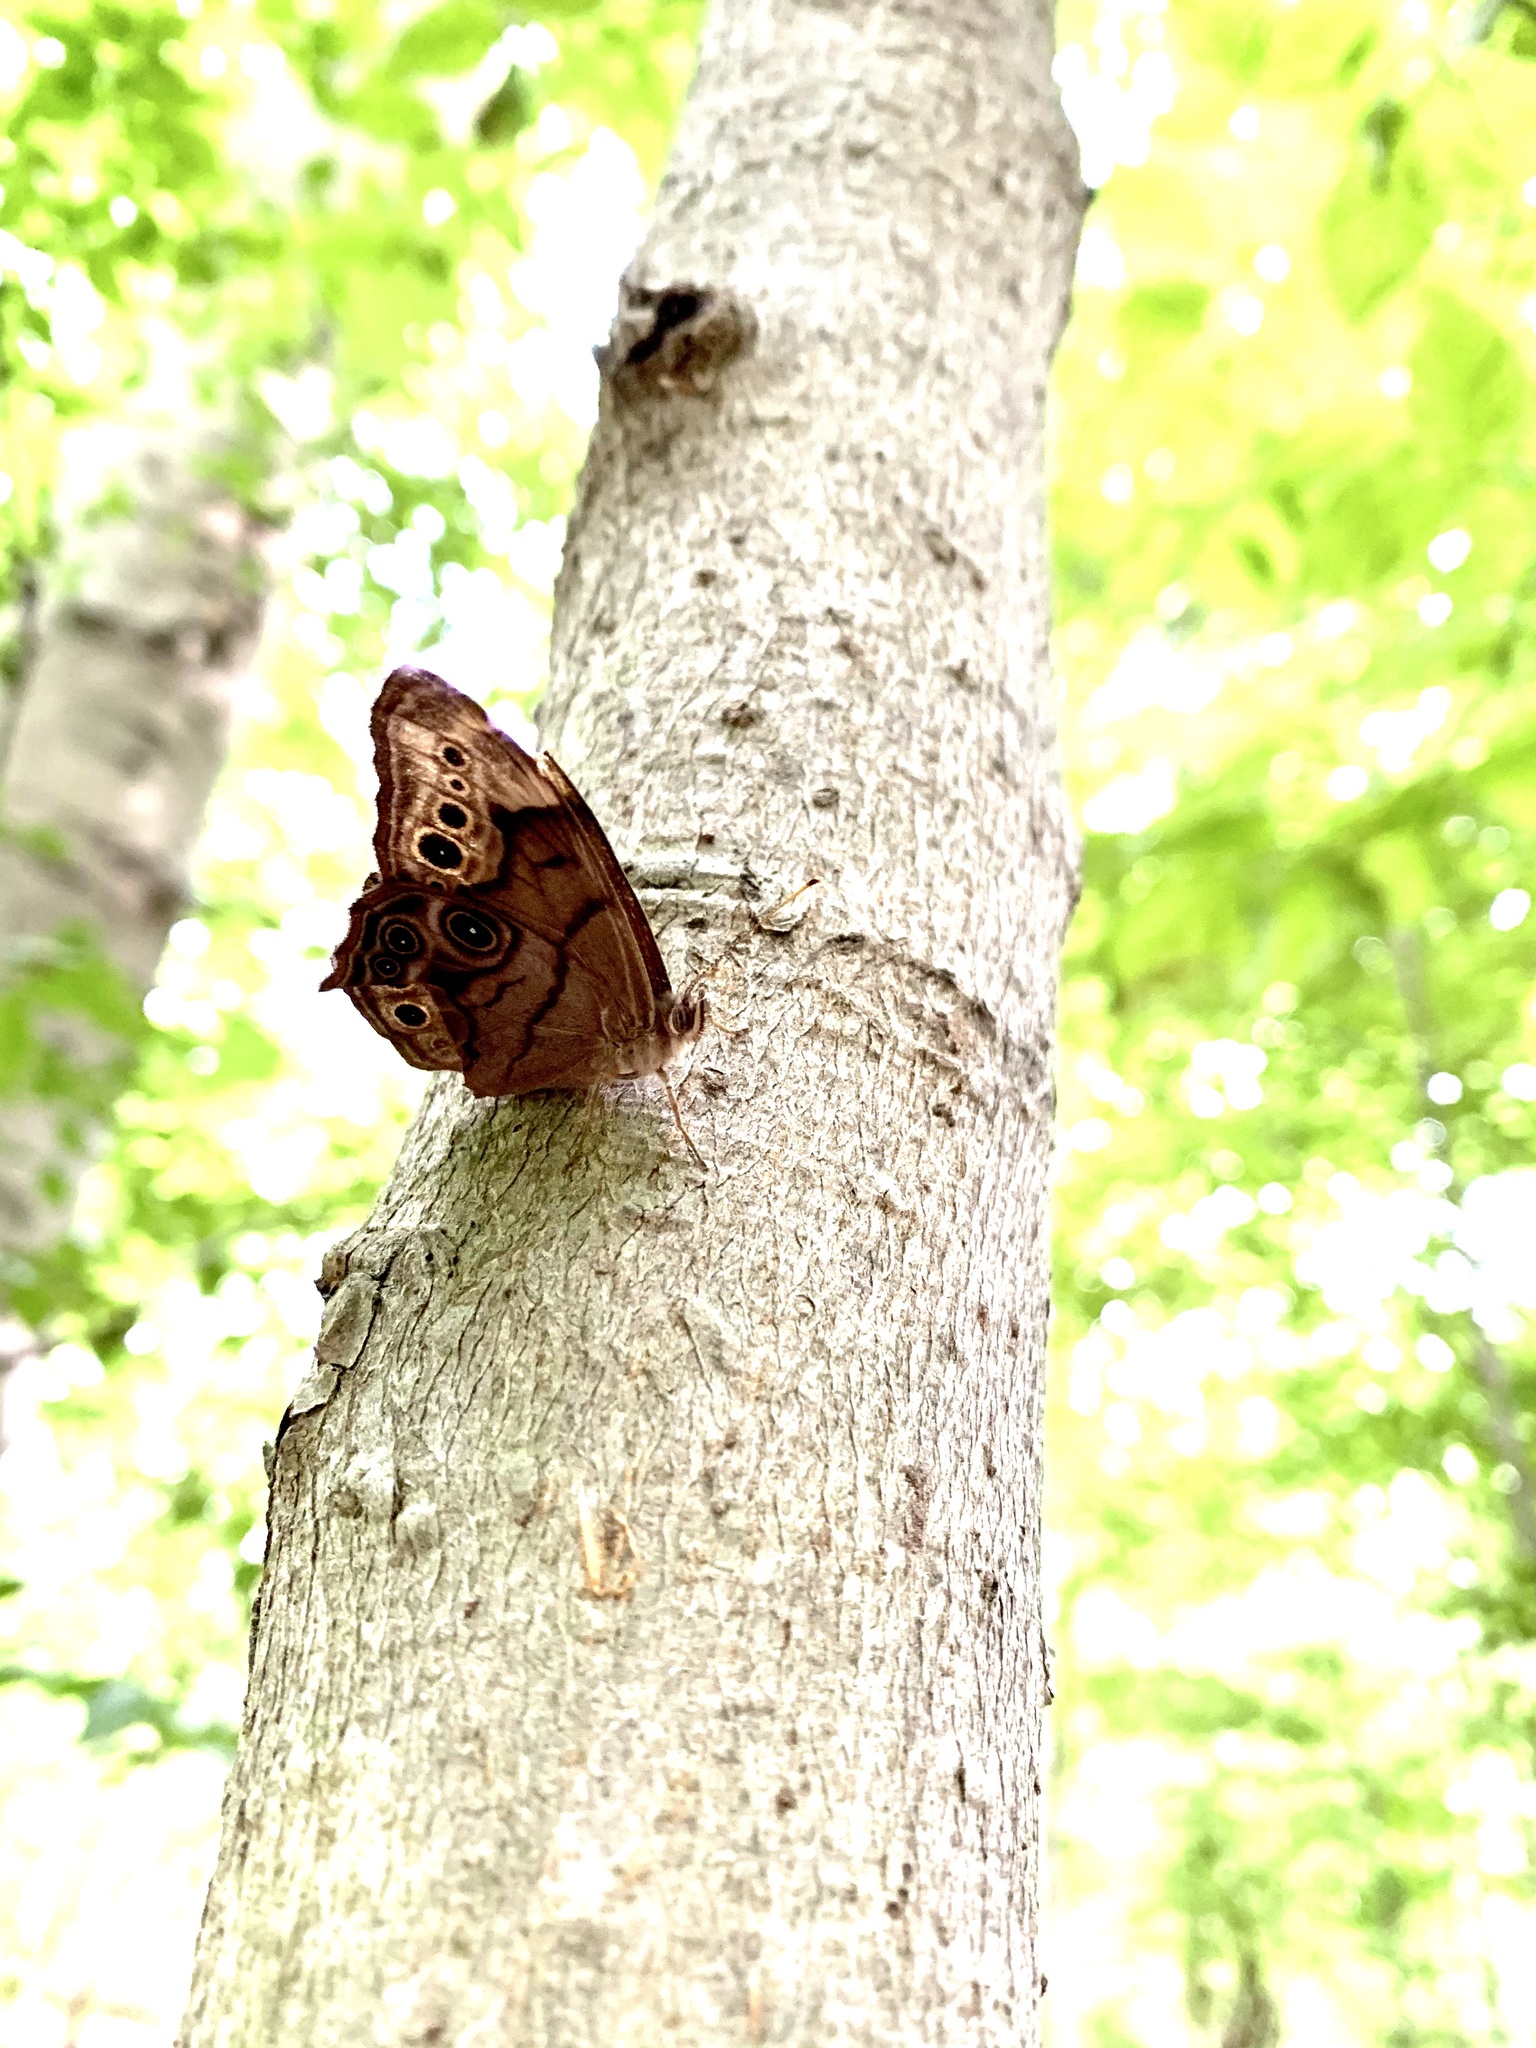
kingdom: Animalia
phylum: Arthropoda
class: Insecta
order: Lepidoptera
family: Nymphalidae
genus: Lethe
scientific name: Lethe anthedon
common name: Northern pearly-eye
